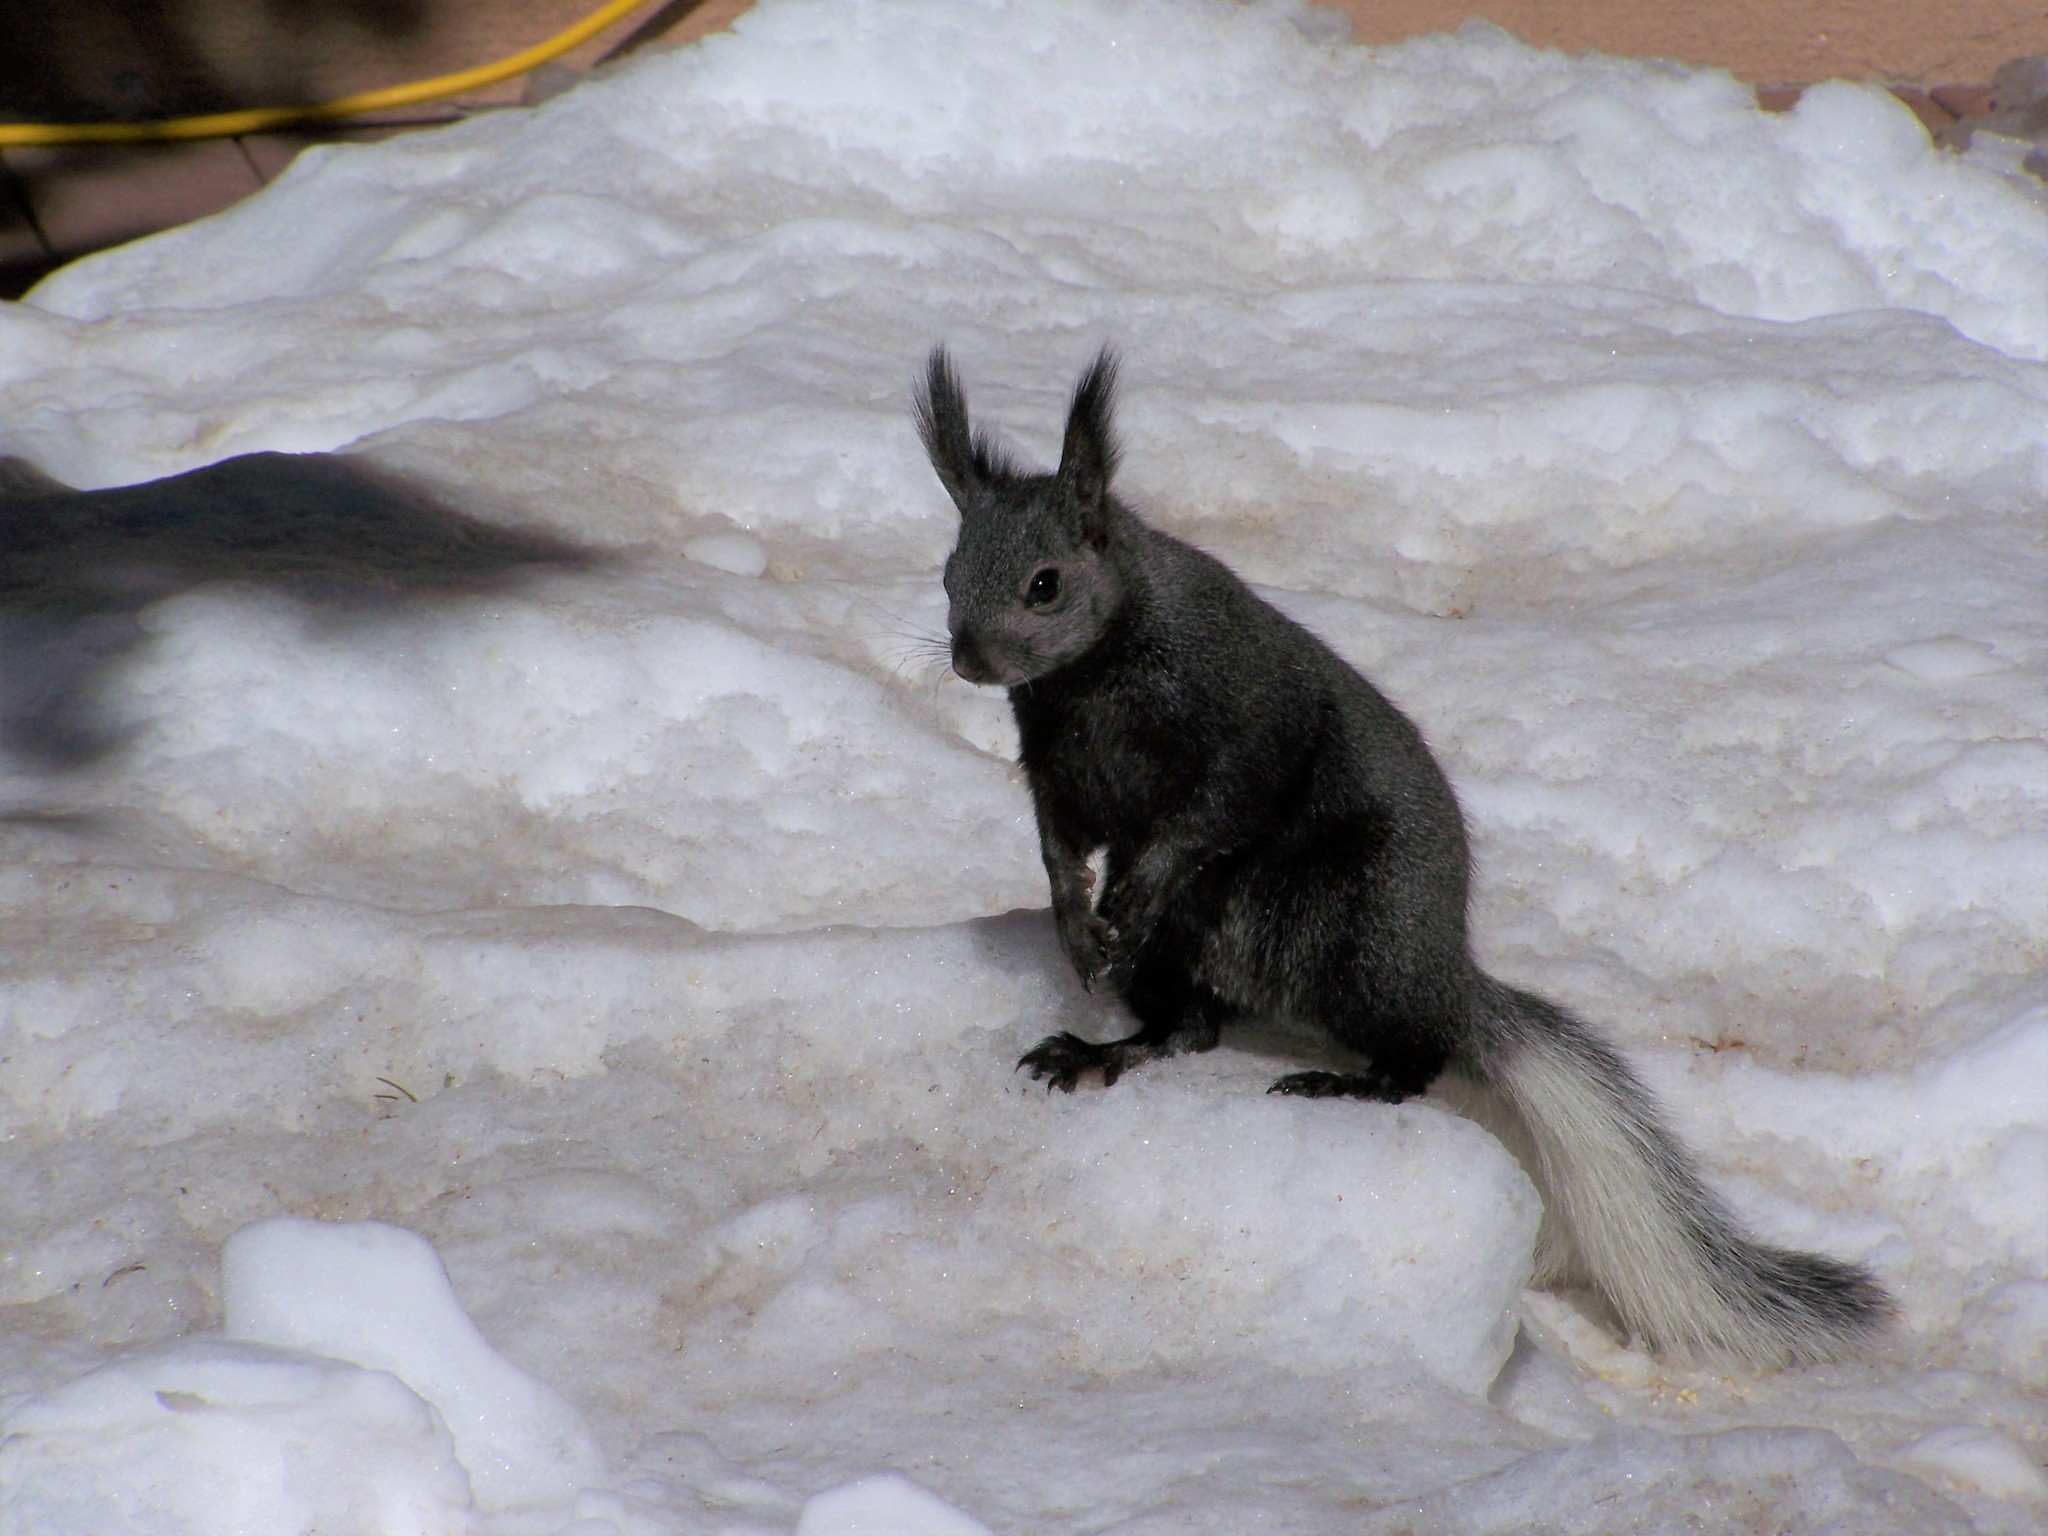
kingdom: Animalia
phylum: Chordata
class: Mammalia
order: Rodentia
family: Sciuridae
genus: Sciurus
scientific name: Sciurus aberti
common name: Abert's squirrel
